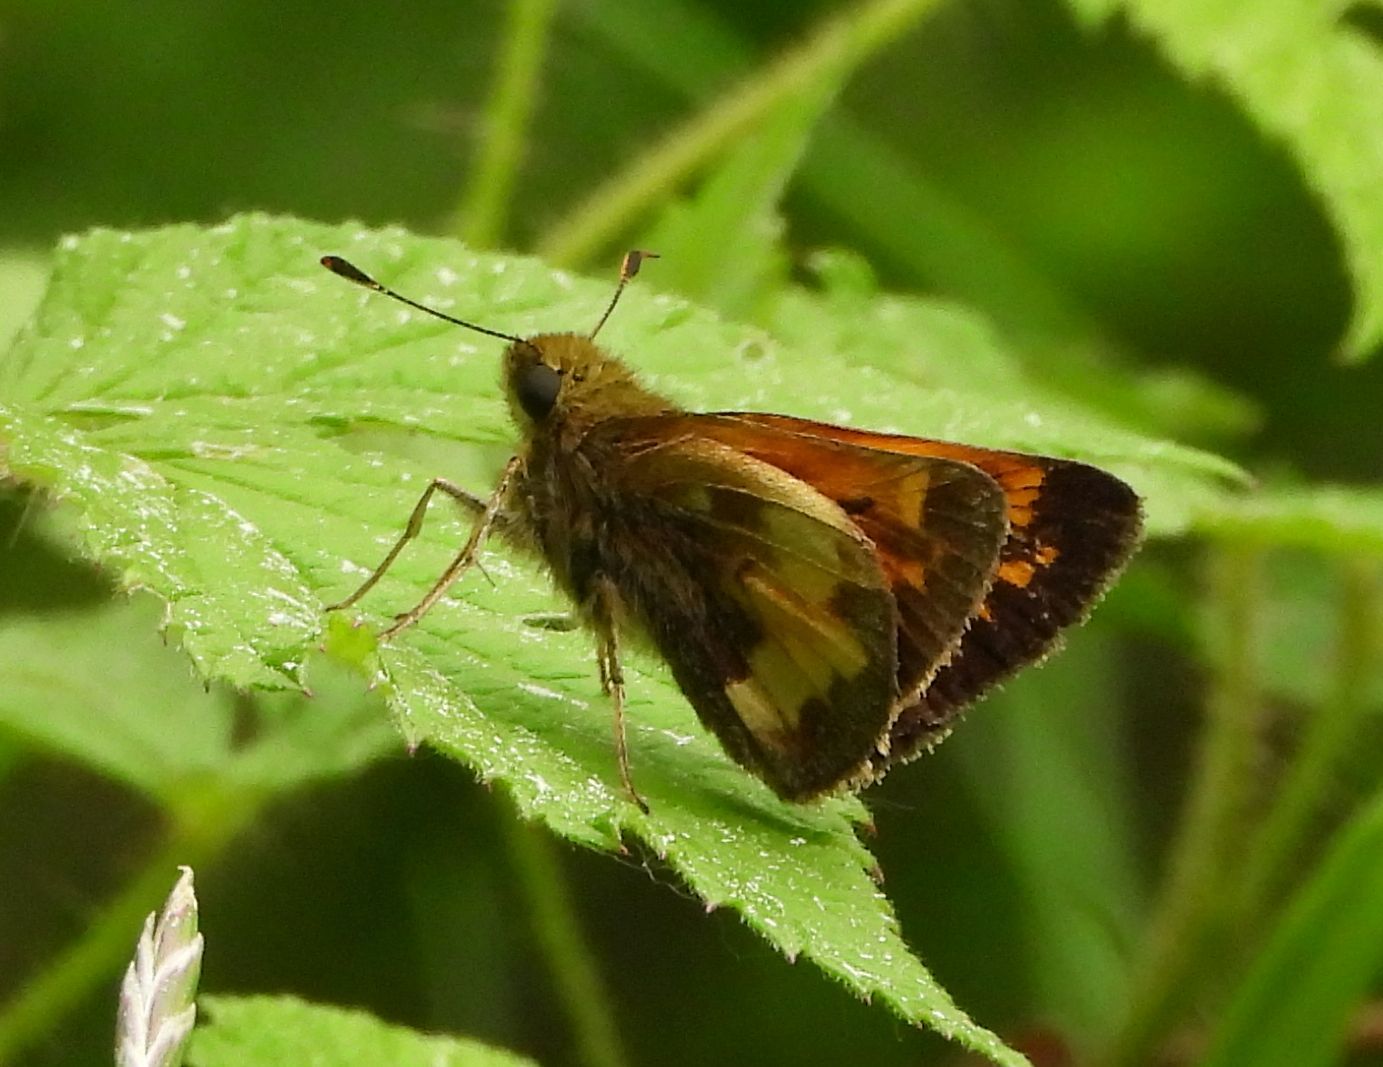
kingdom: Animalia
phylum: Arthropoda
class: Insecta
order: Lepidoptera
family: Hesperiidae
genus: Lon
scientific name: Lon hobomok
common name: Hobomok skipper
